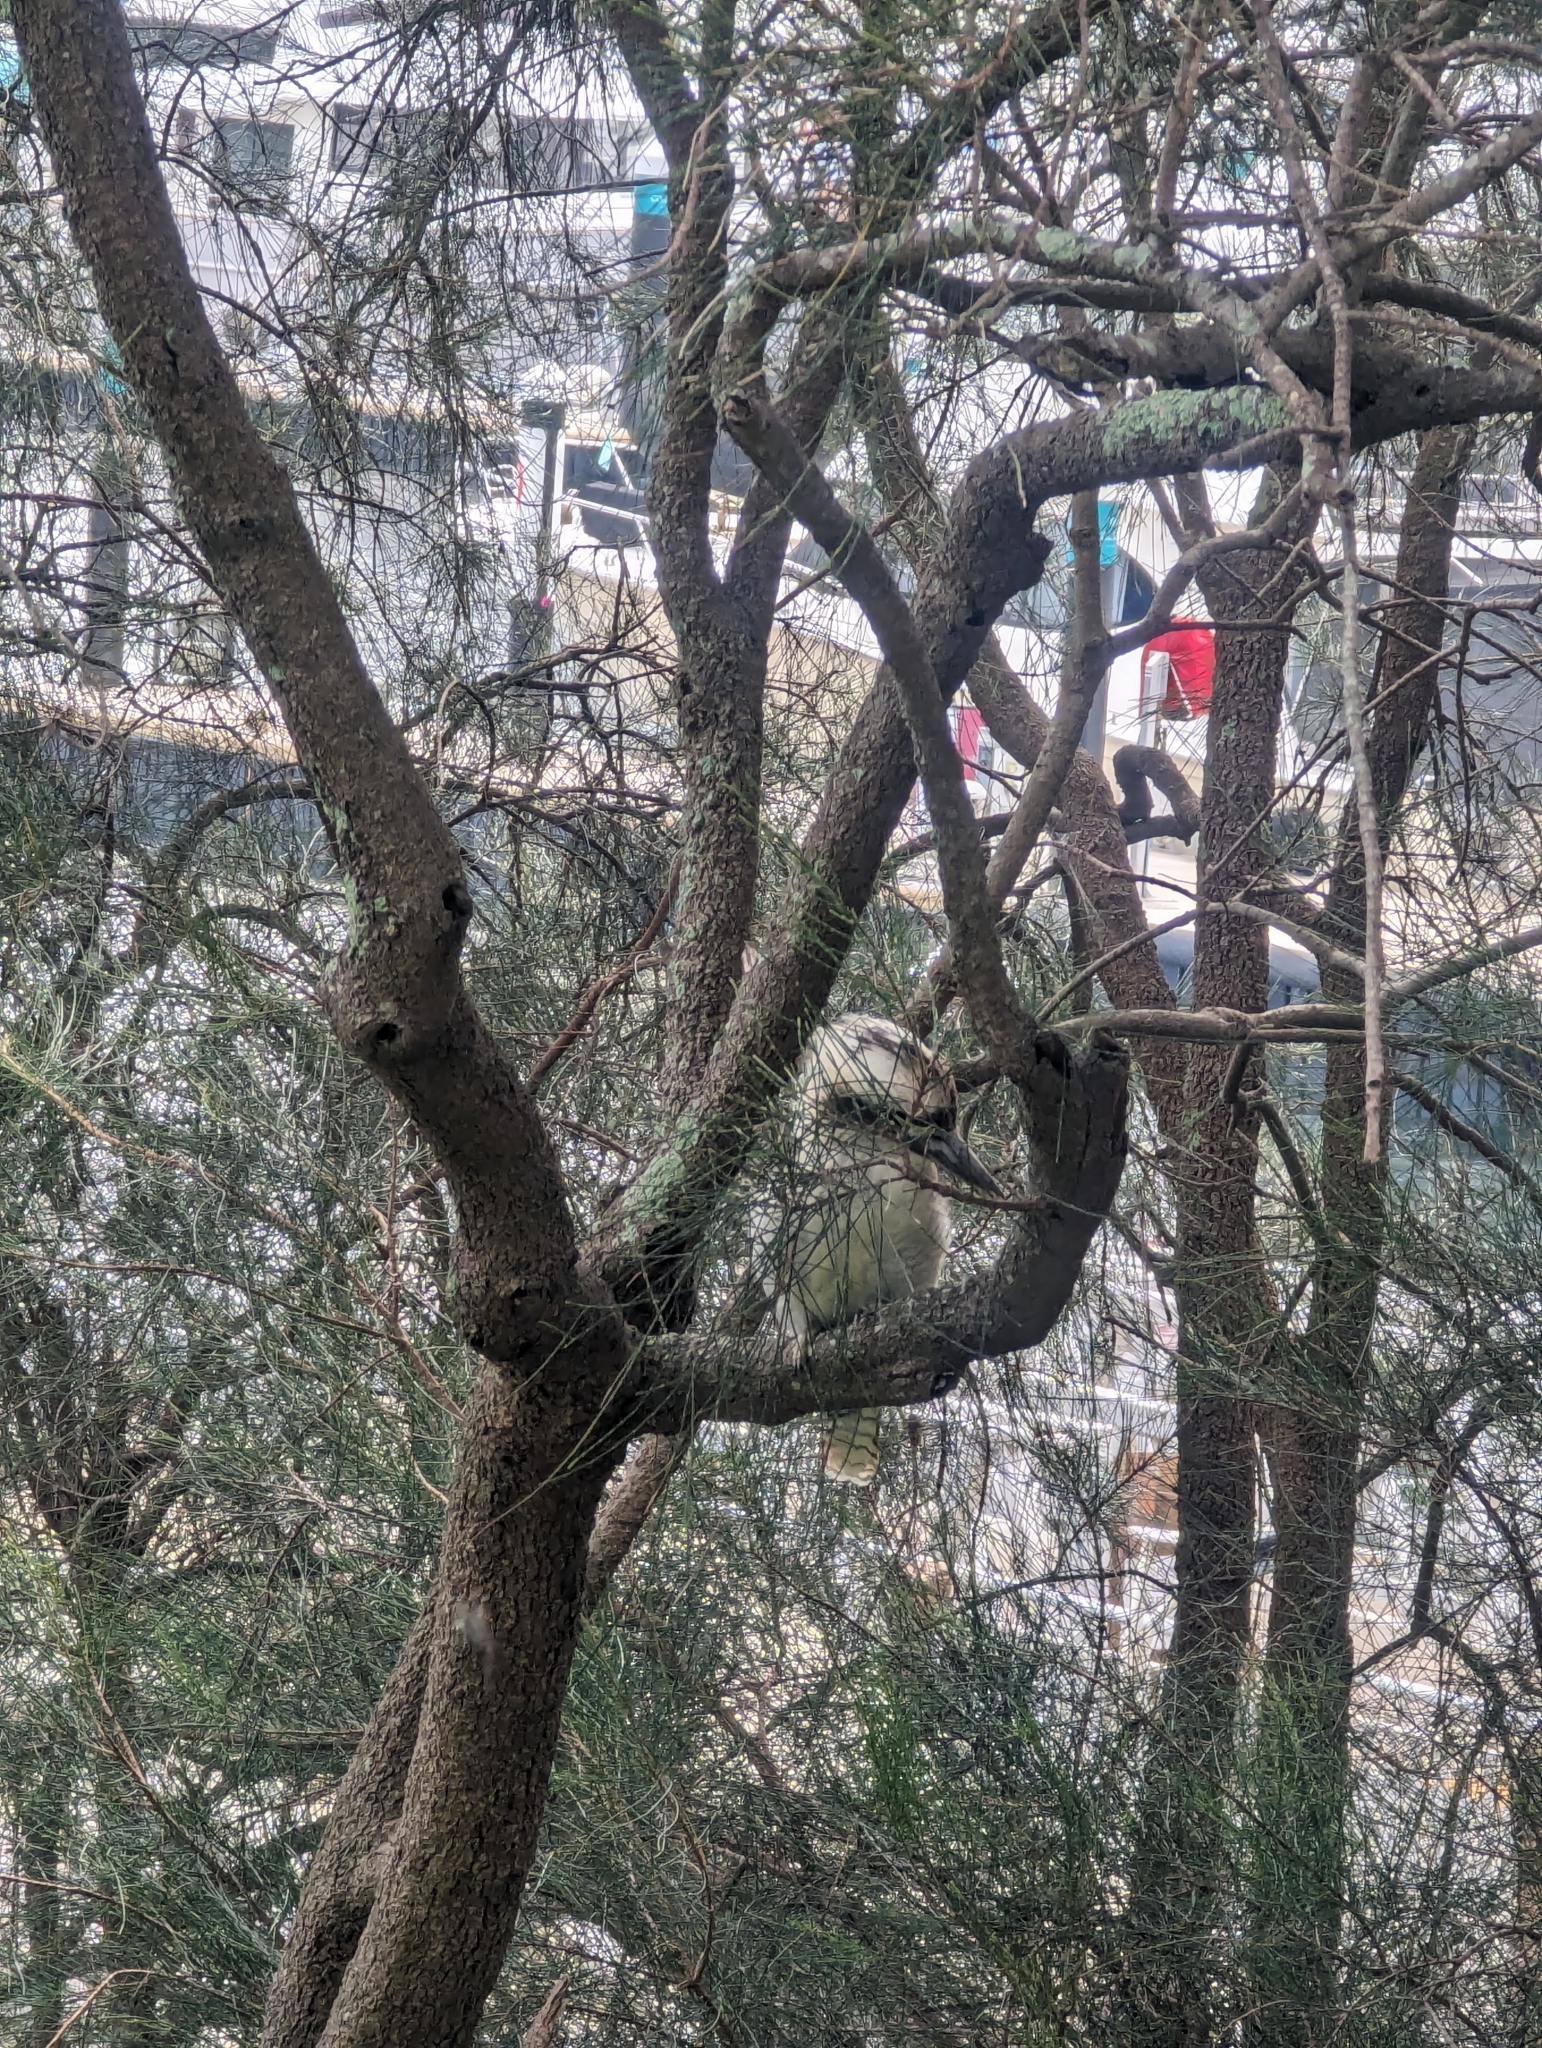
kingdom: Animalia
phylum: Chordata
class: Aves
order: Coraciiformes
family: Alcedinidae
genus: Dacelo
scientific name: Dacelo novaeguineae
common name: Laughing kookaburra
